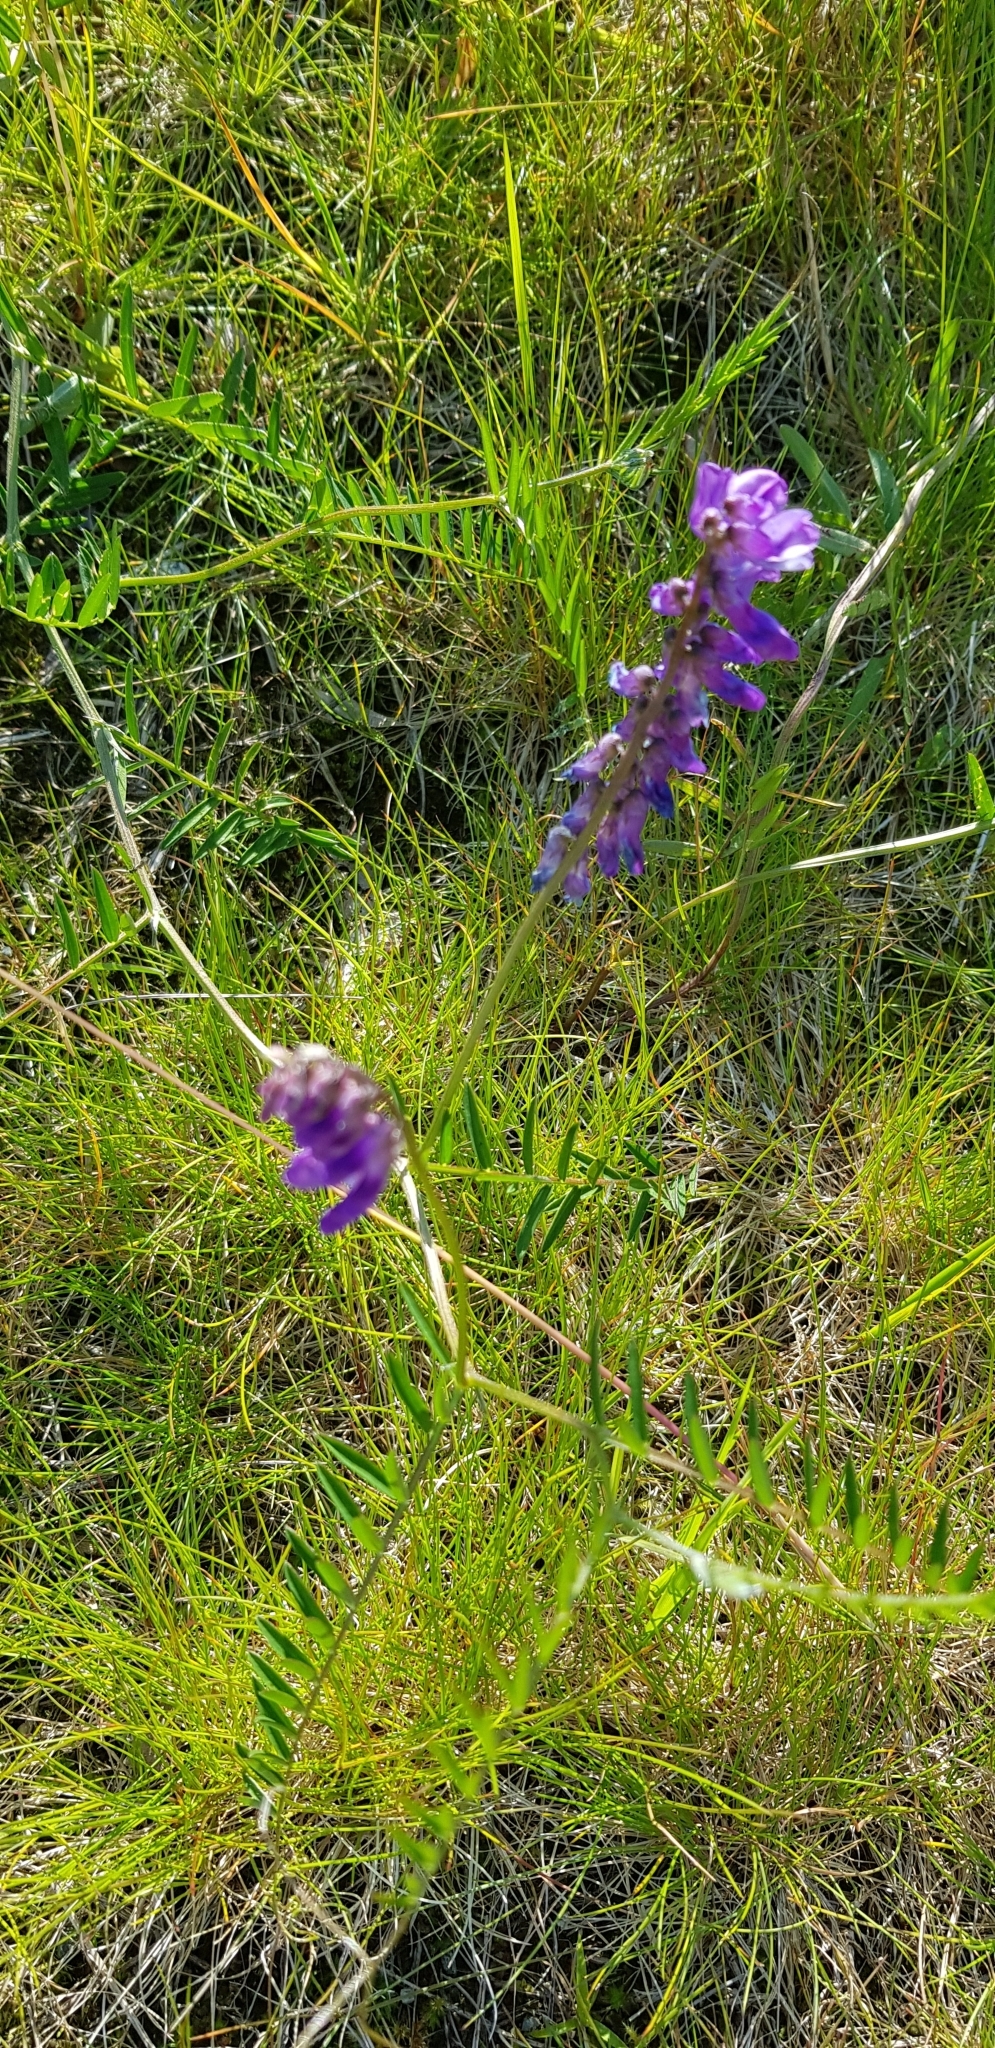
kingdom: Plantae
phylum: Tracheophyta
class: Magnoliopsida
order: Fabales
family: Fabaceae
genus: Vicia
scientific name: Vicia cracca
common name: Bird vetch
